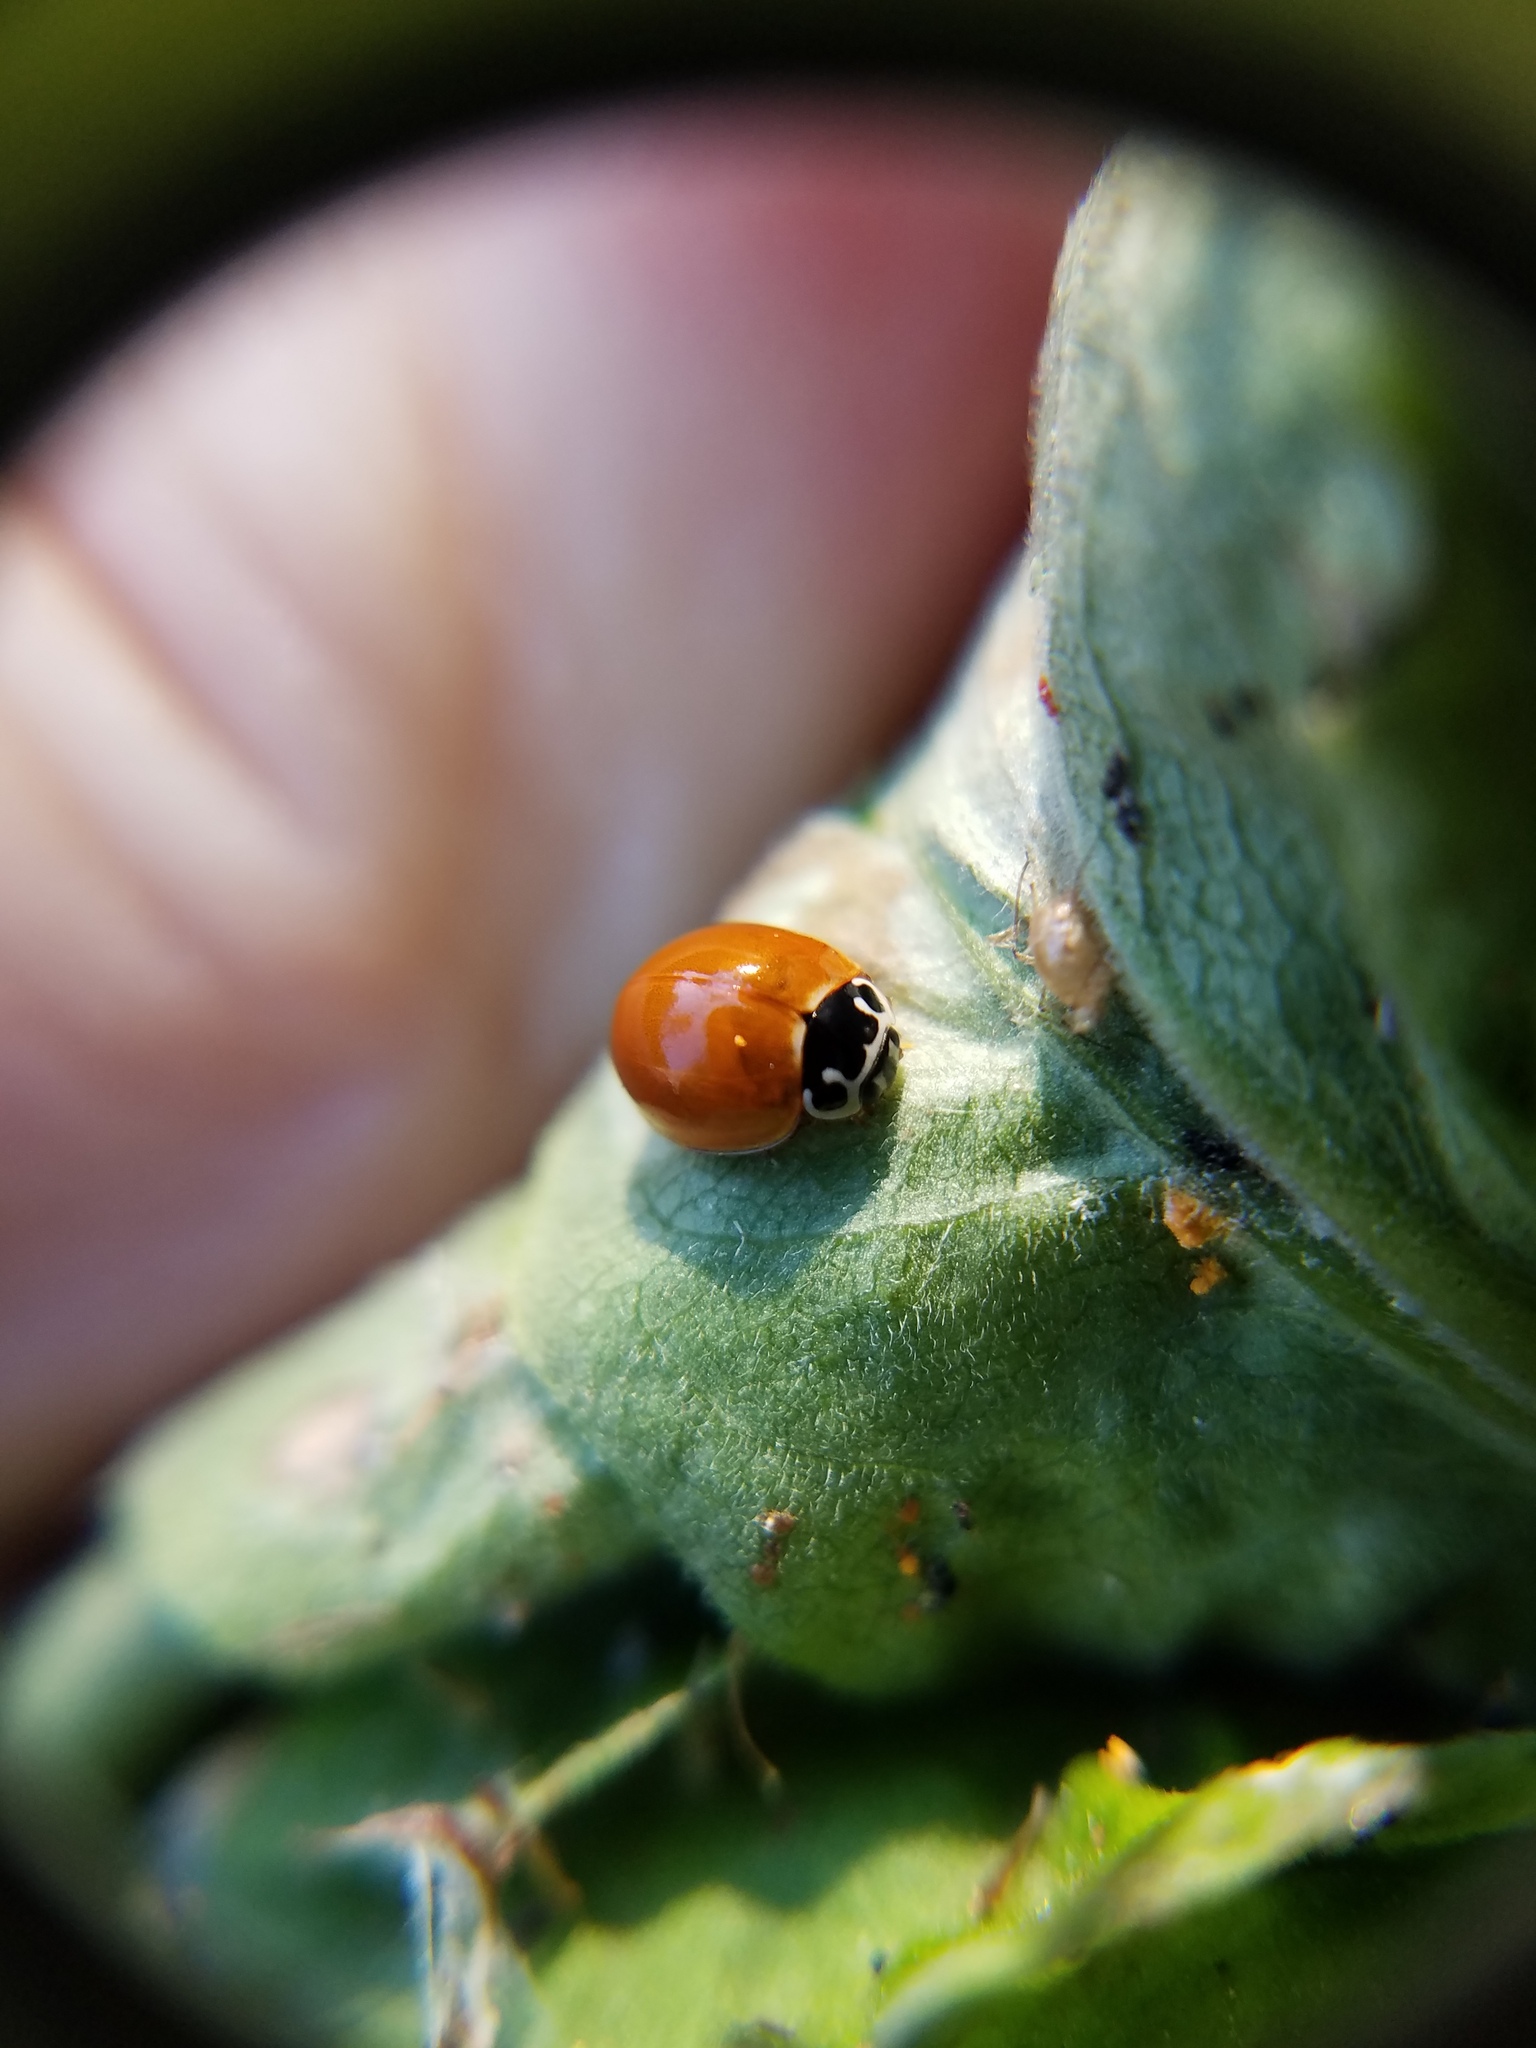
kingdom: Animalia
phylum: Arthropoda
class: Insecta
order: Coleoptera
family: Coccinellidae
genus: Cycloneda
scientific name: Cycloneda munda
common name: Polished lady beetle
